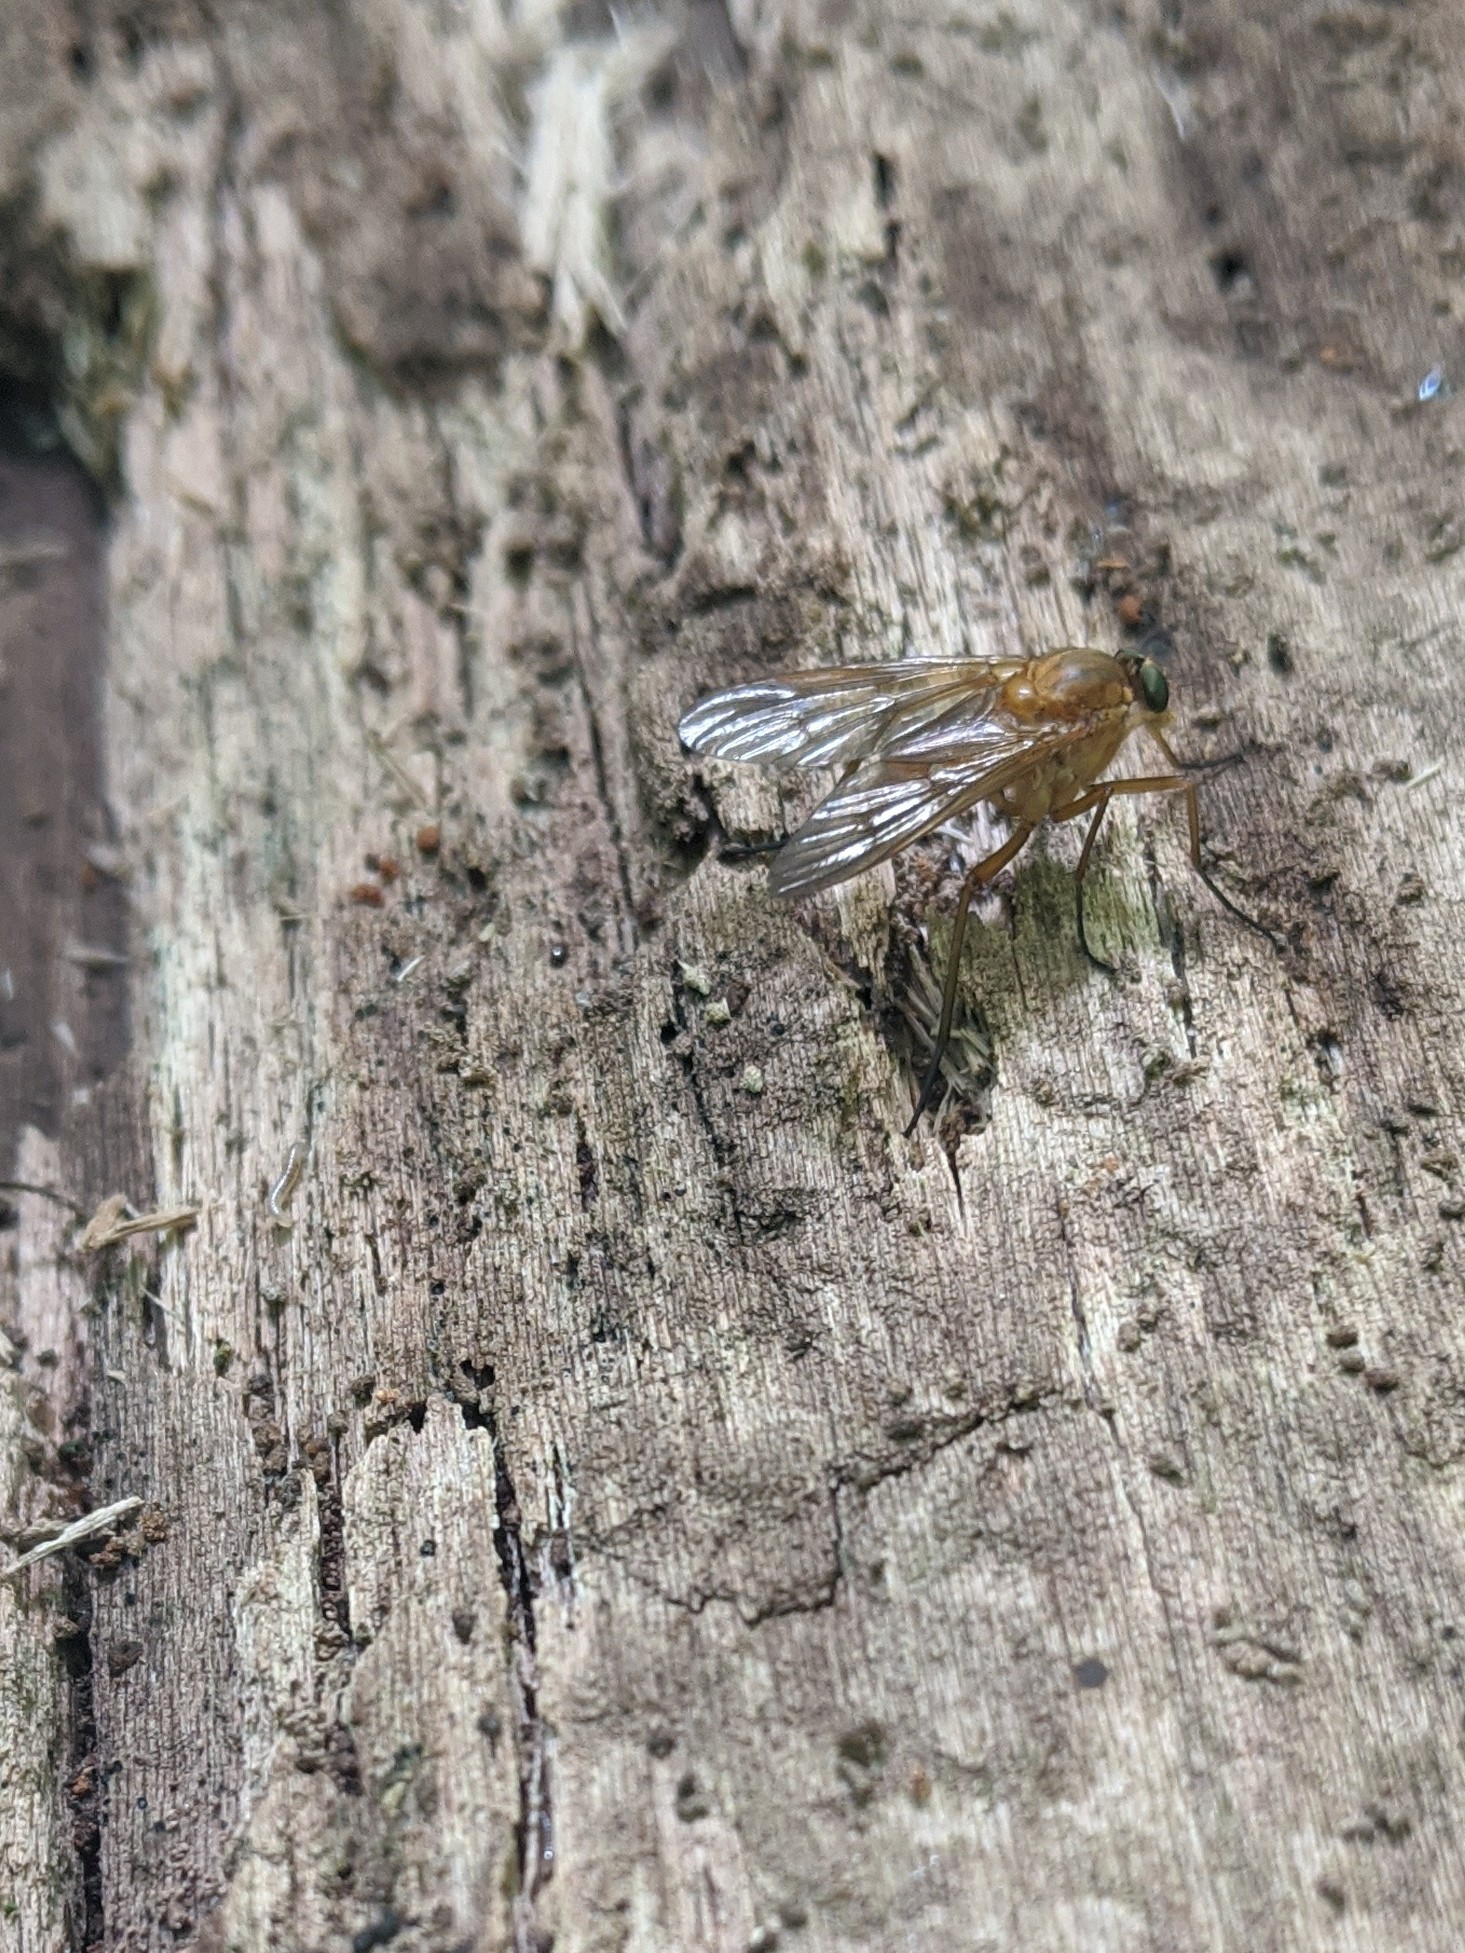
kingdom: Animalia
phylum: Arthropoda
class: Insecta
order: Diptera
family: Rhagionidae
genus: Rhagio
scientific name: Rhagio tringaria
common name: Marsh snipefly
